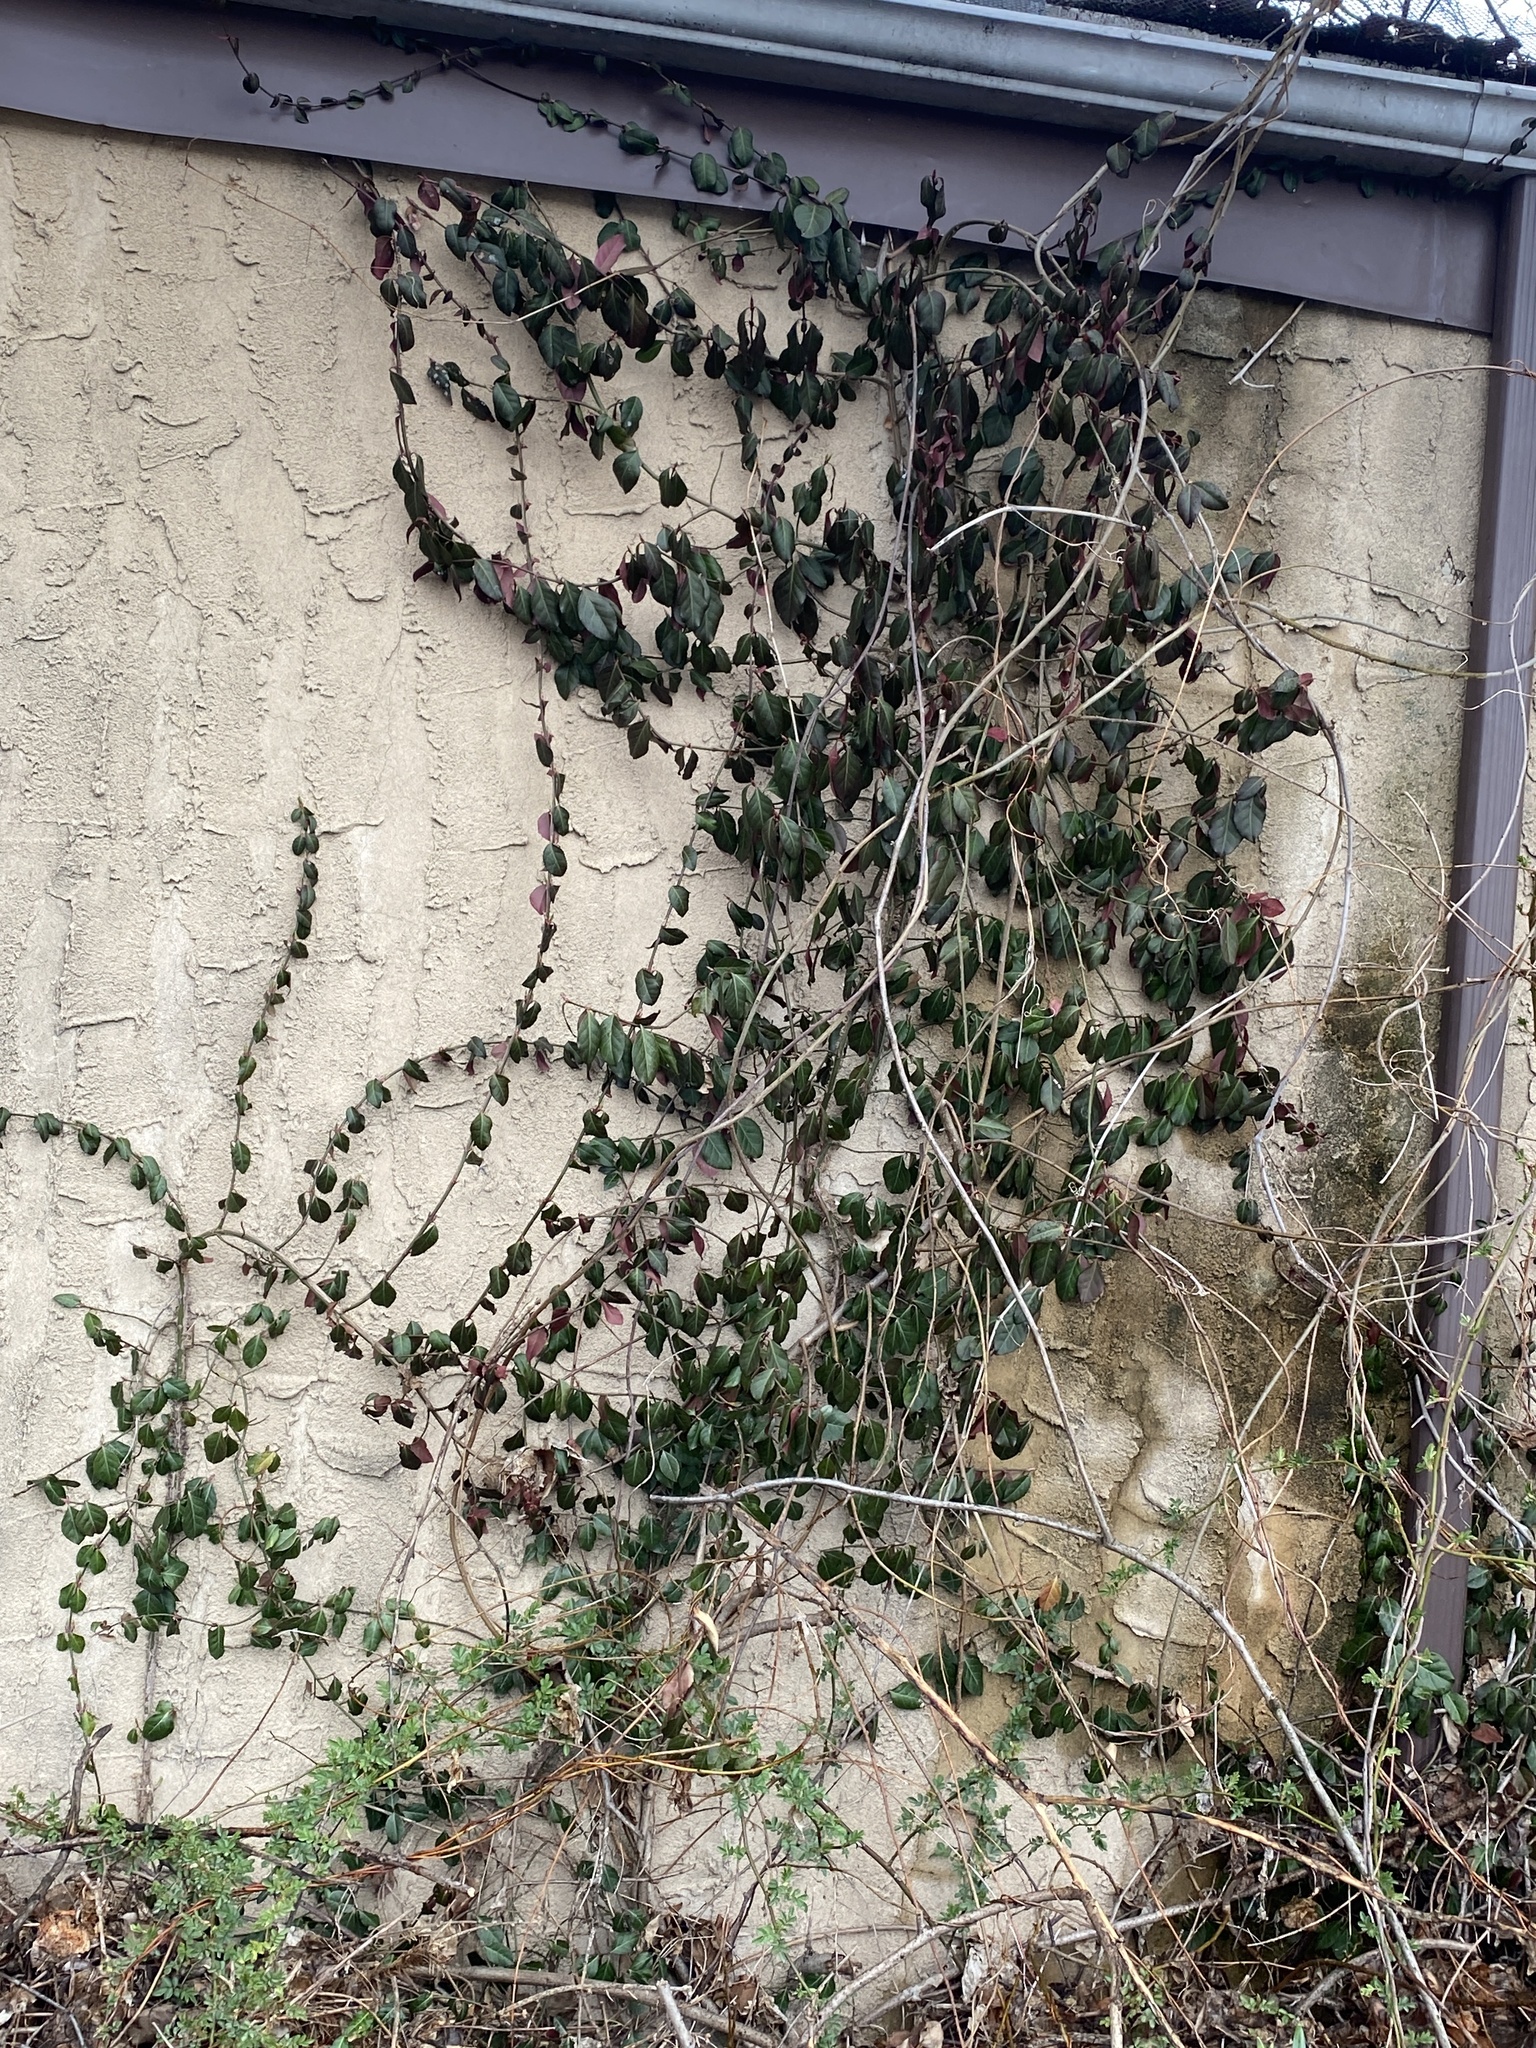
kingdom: Plantae
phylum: Tracheophyta
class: Magnoliopsida
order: Celastrales
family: Celastraceae
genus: Euonymus
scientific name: Euonymus fortunei
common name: Climbing euonymus
